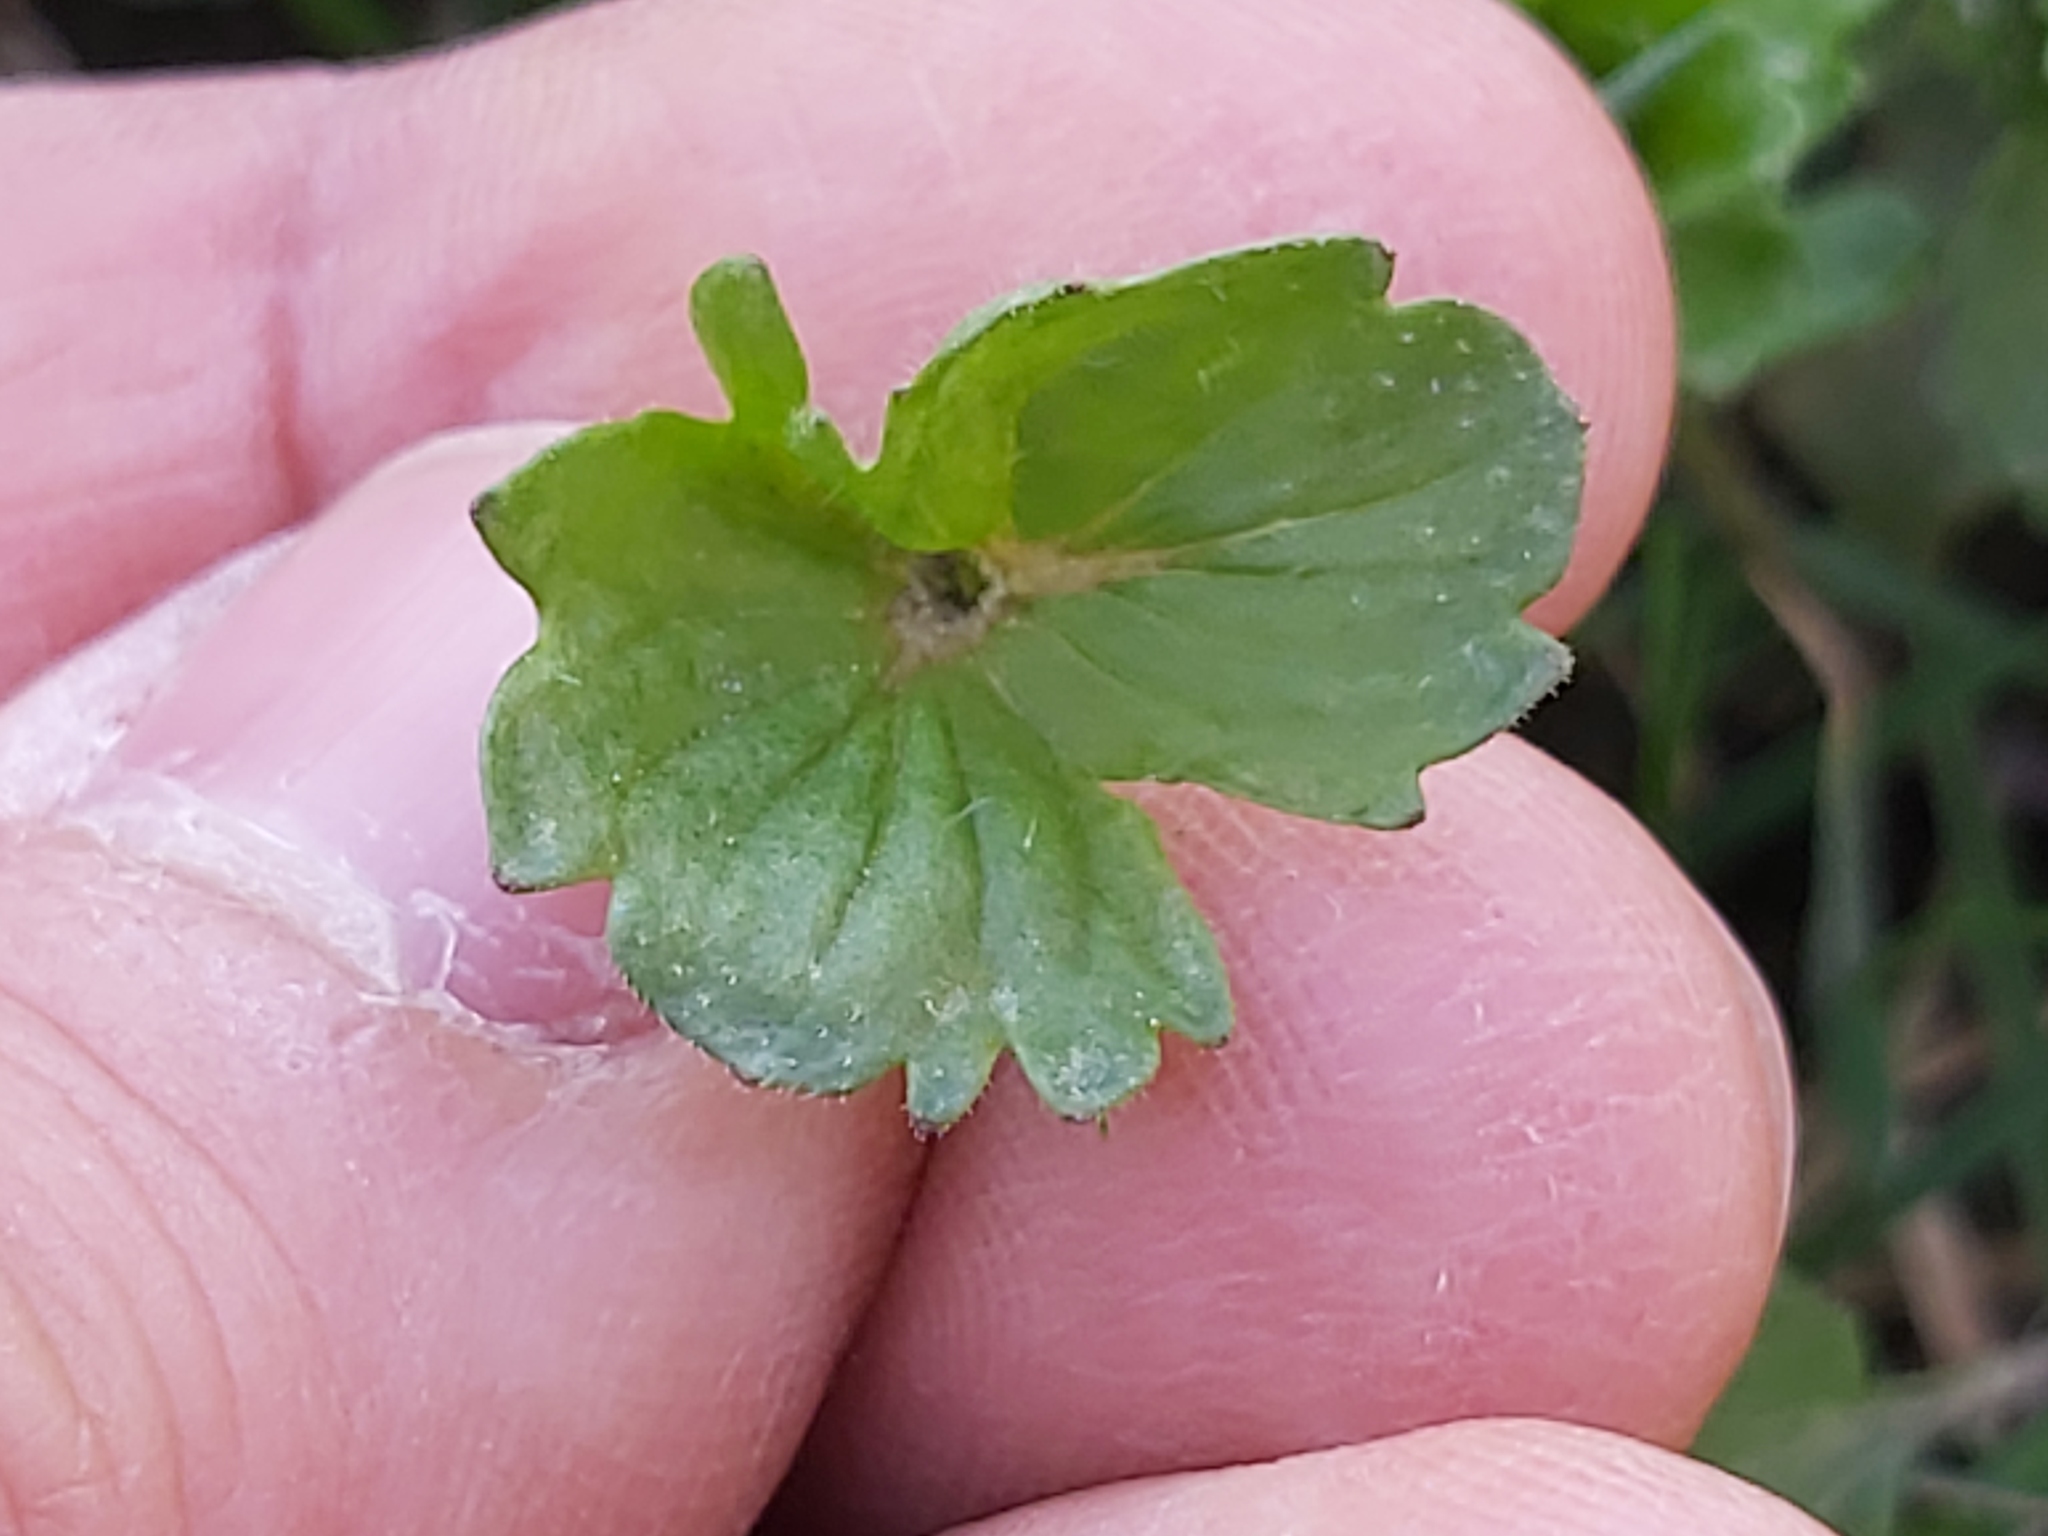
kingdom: Plantae
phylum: Tracheophyta
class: Magnoliopsida
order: Lamiales
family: Plantaginaceae
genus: Veronica
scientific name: Veronica persica
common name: Common field-speedwell
